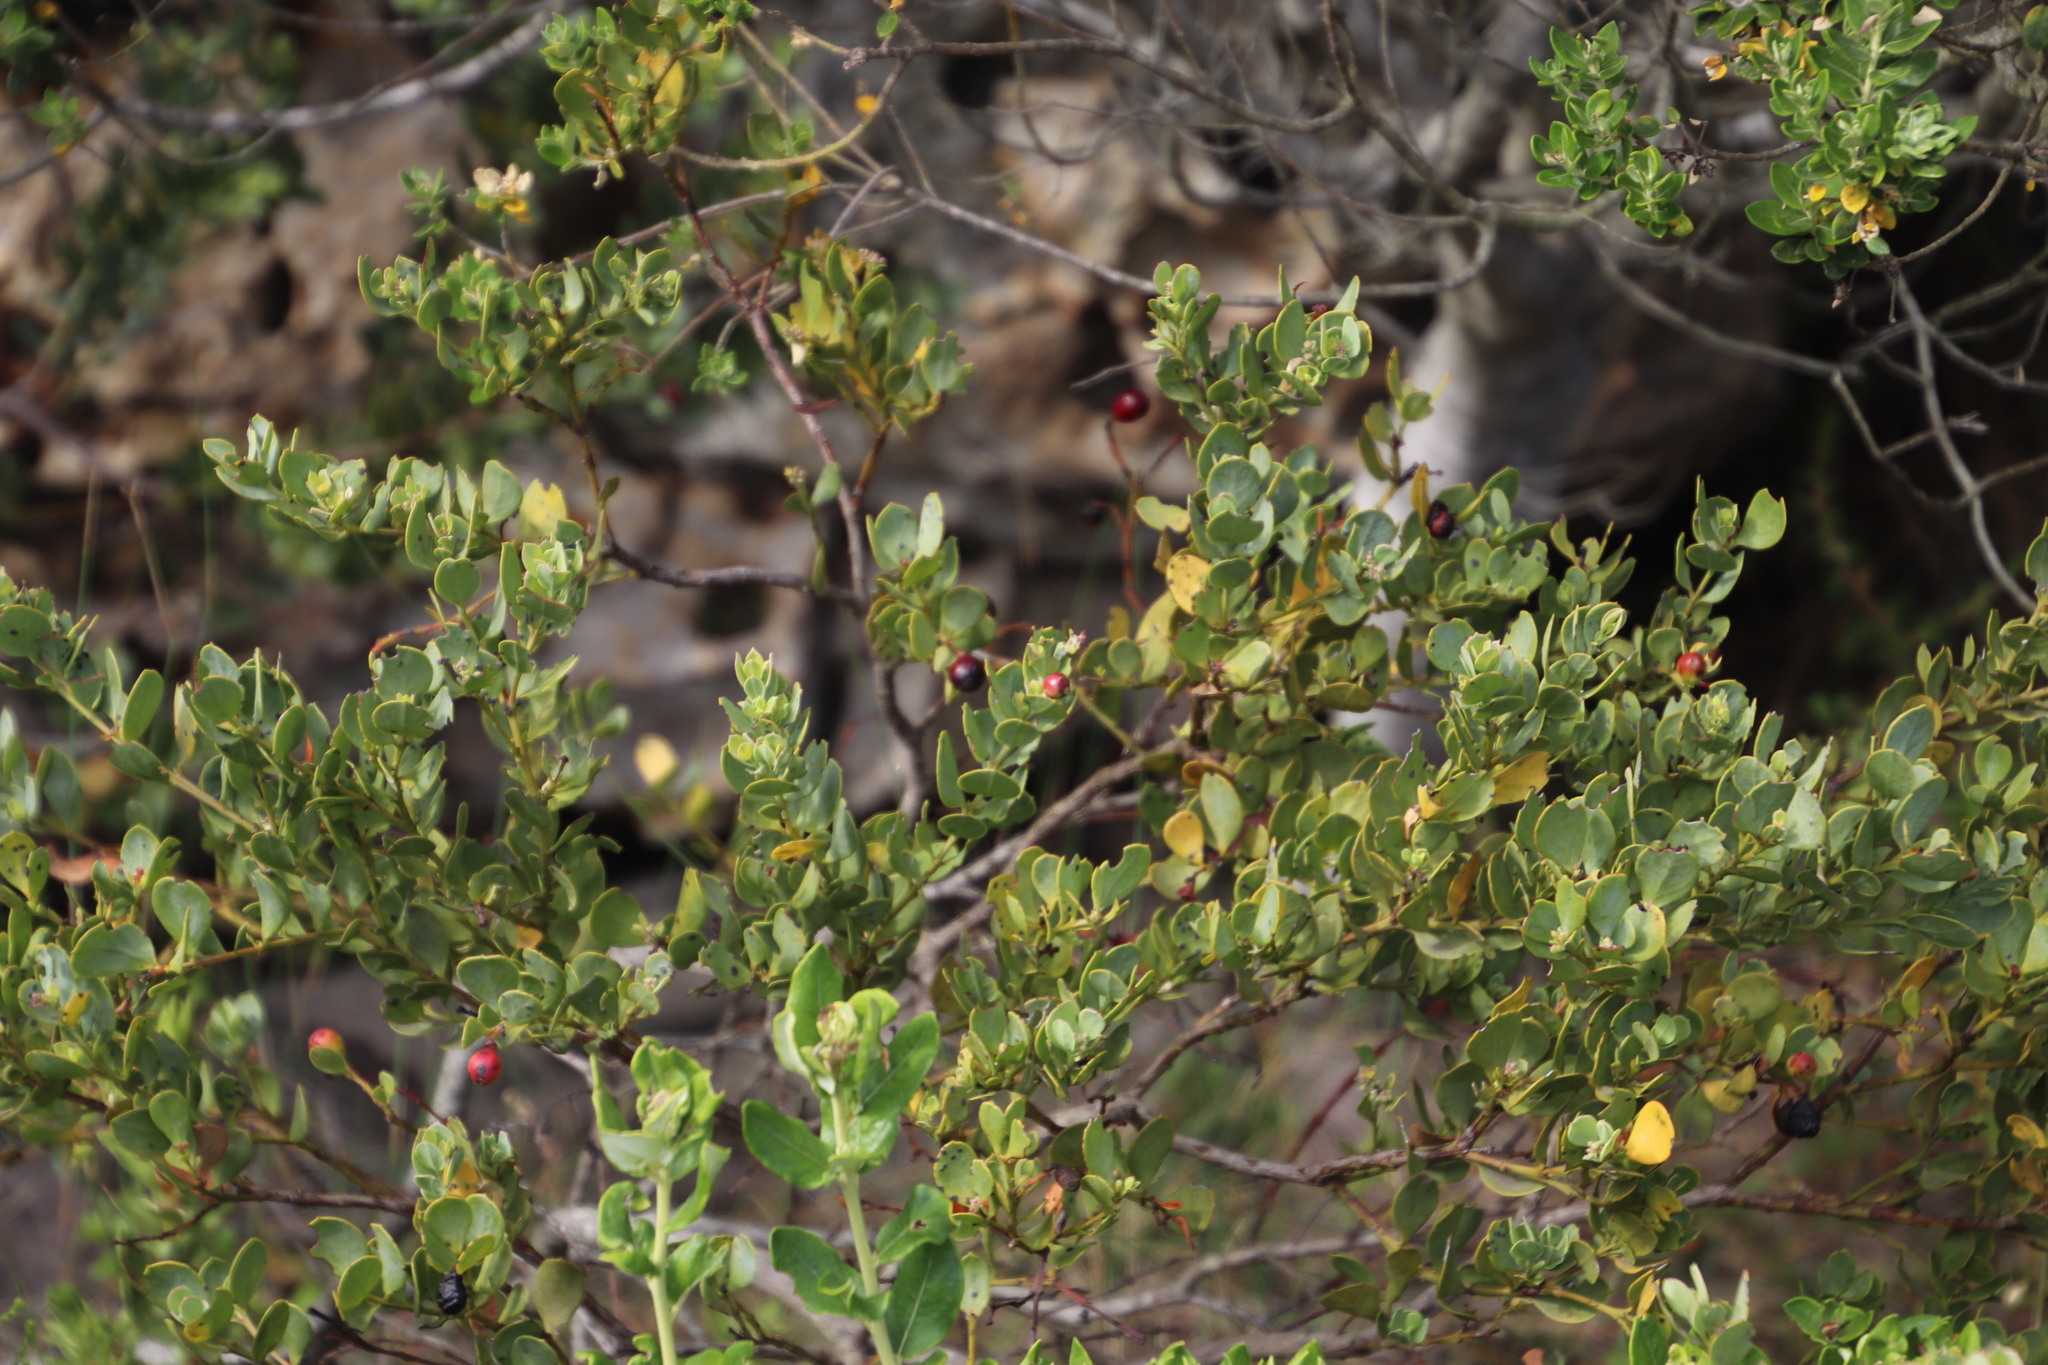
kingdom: Plantae
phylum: Tracheophyta
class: Magnoliopsida
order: Santalales
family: Santalaceae
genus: Osyris
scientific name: Osyris compressa
